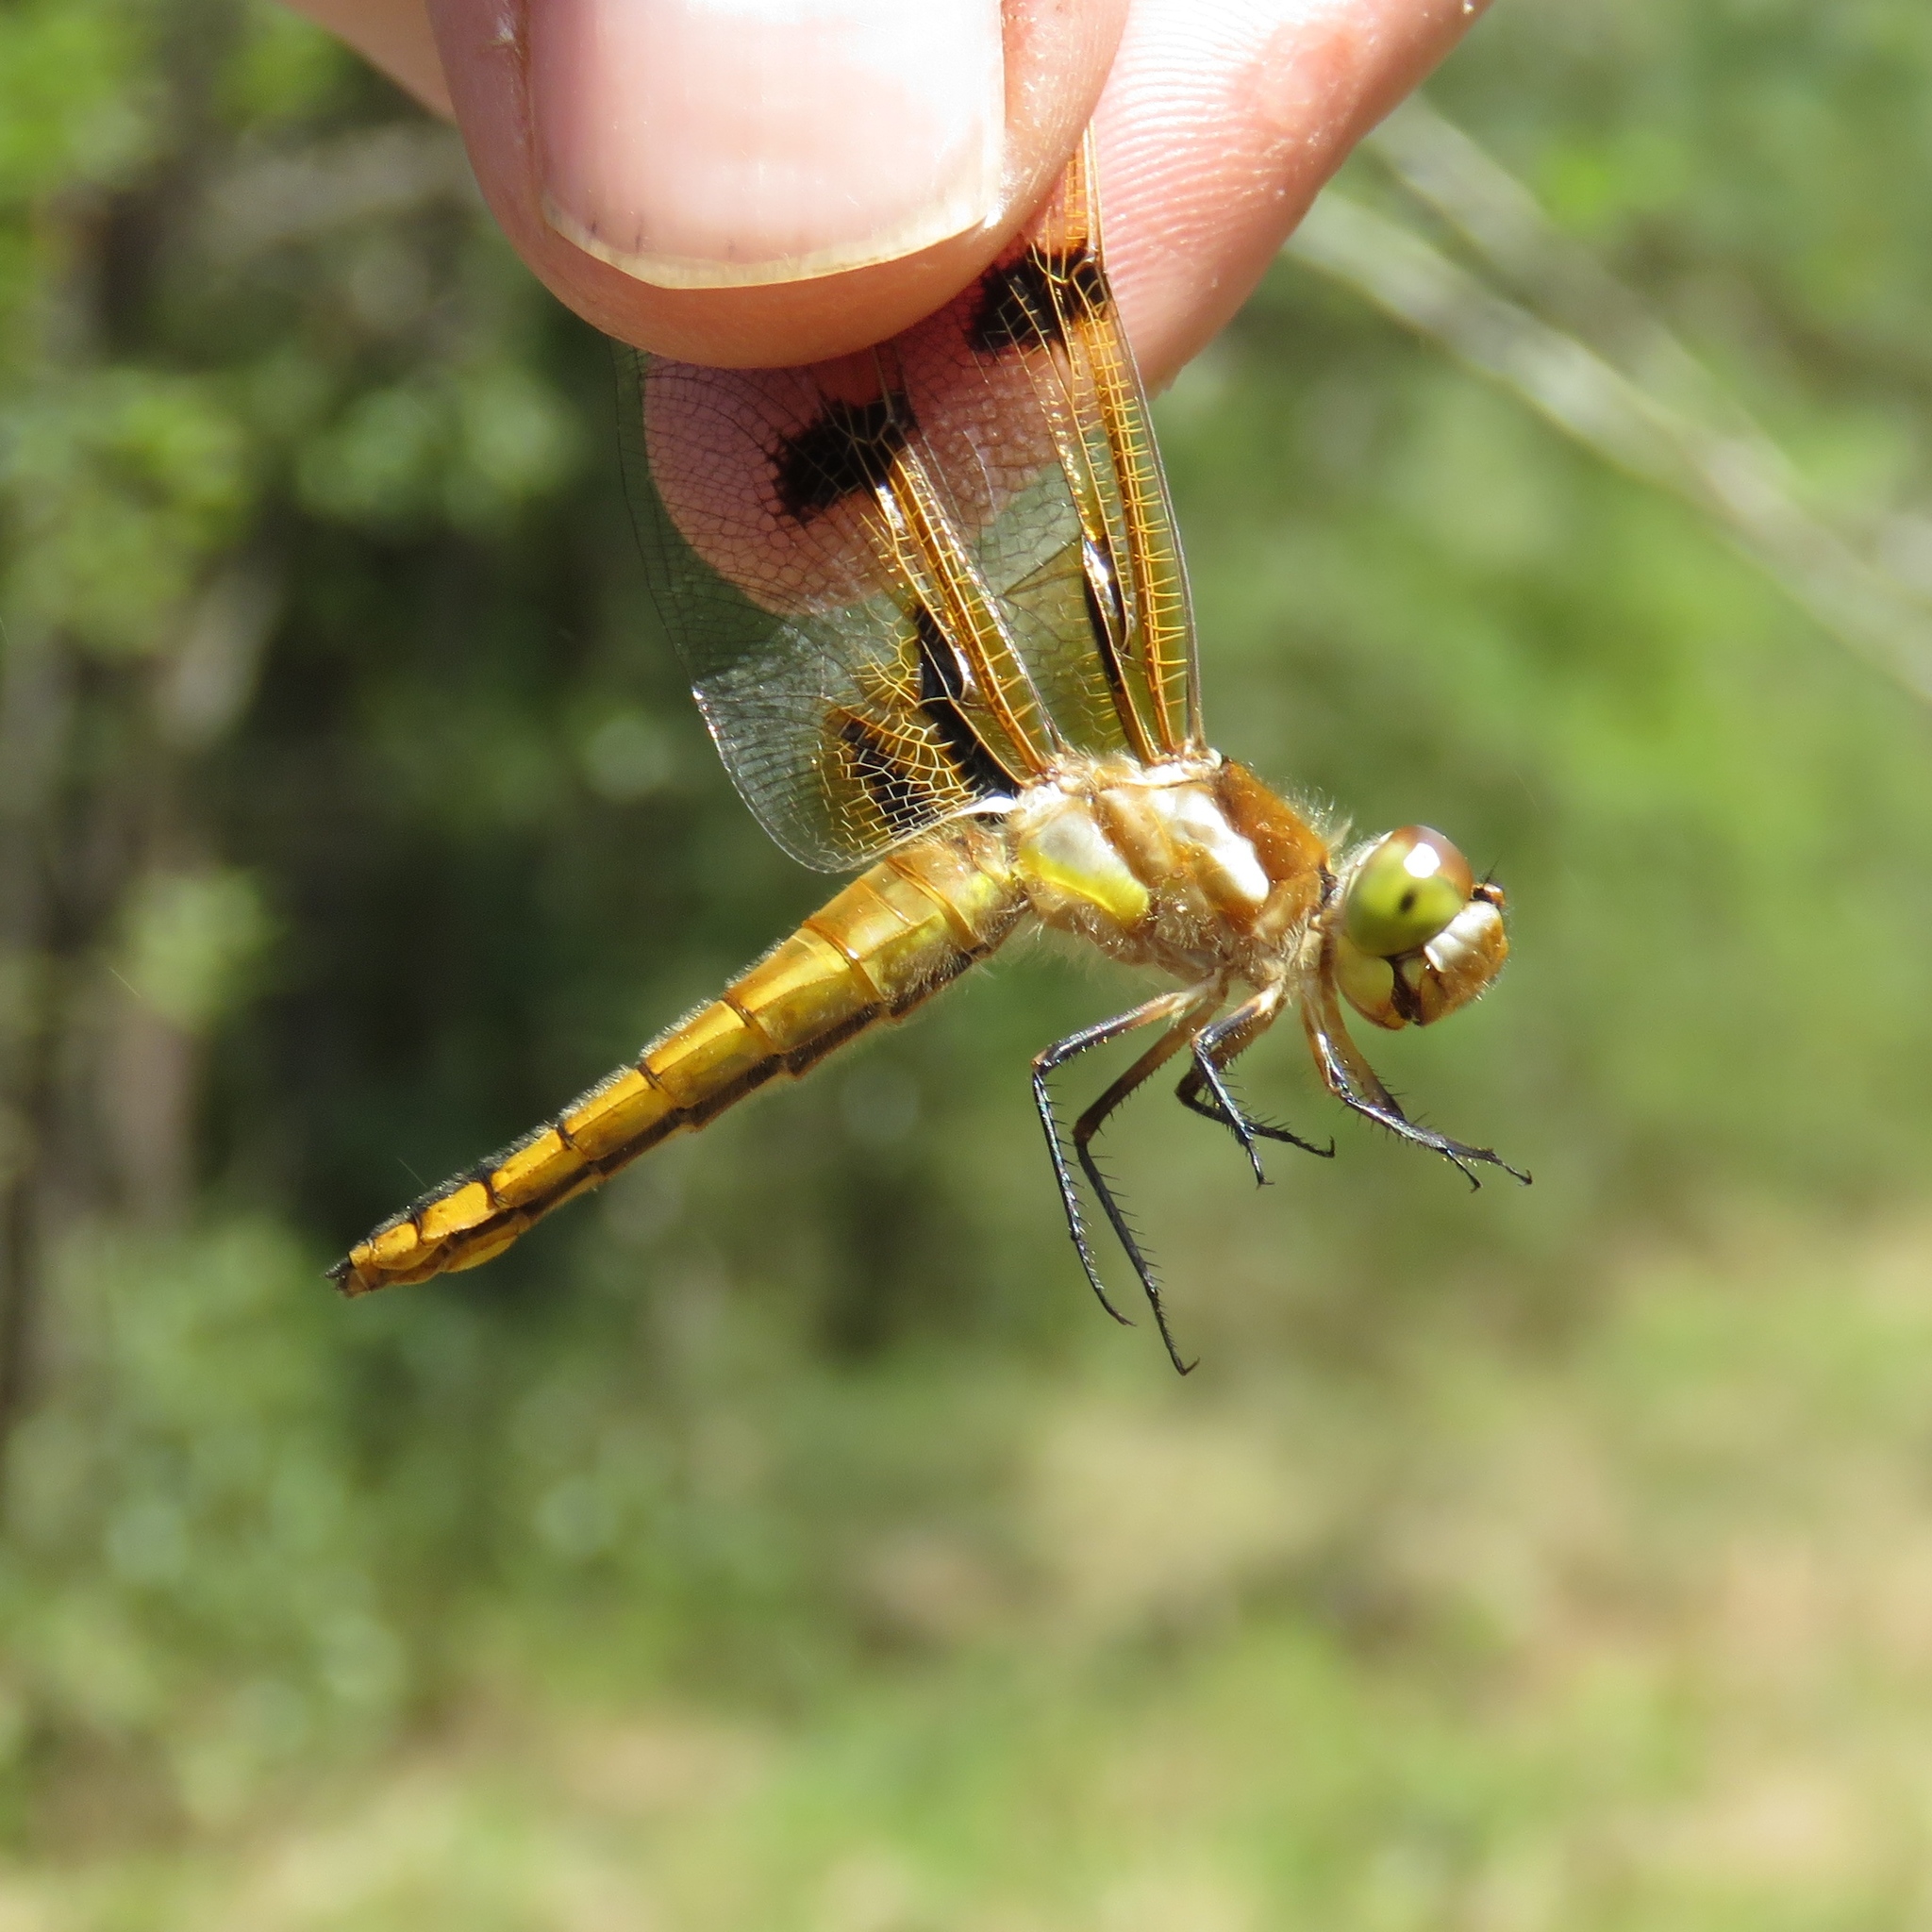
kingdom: Animalia
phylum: Arthropoda
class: Insecta
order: Odonata
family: Libellulidae
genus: Libellula
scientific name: Libellula semifasciata
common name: Painted skimmer
